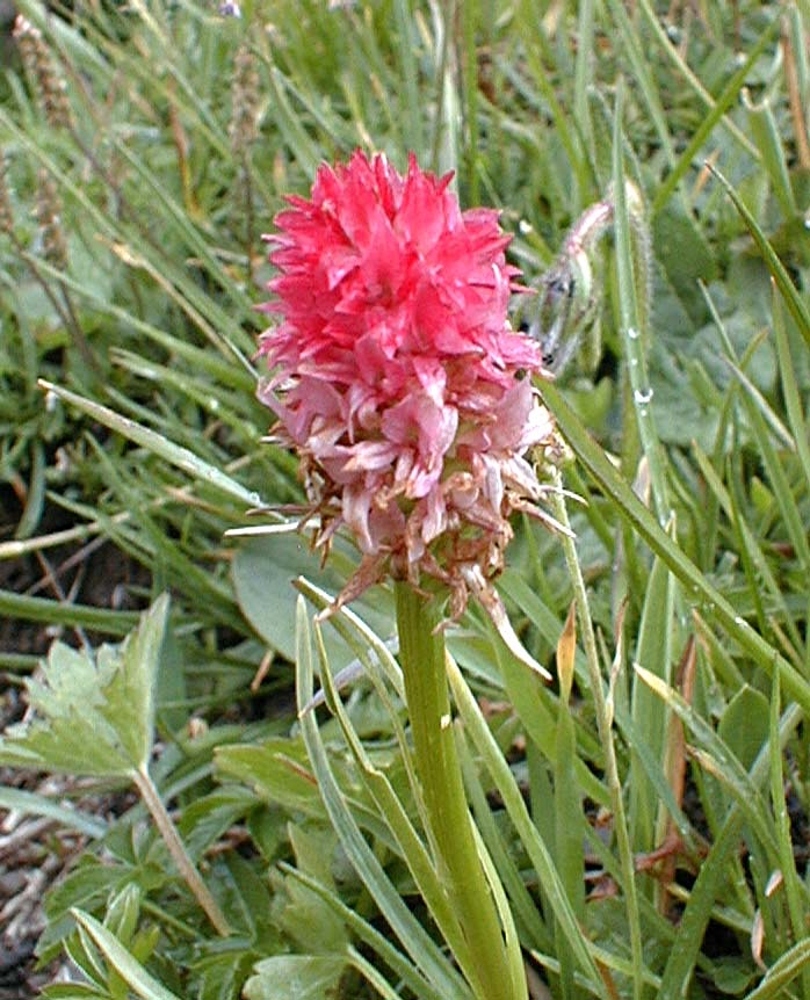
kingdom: Plantae
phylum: Tracheophyta
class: Liliopsida
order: Asparagales
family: Orchidaceae
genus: Gymnadenia
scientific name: Gymnadenia corneliana
